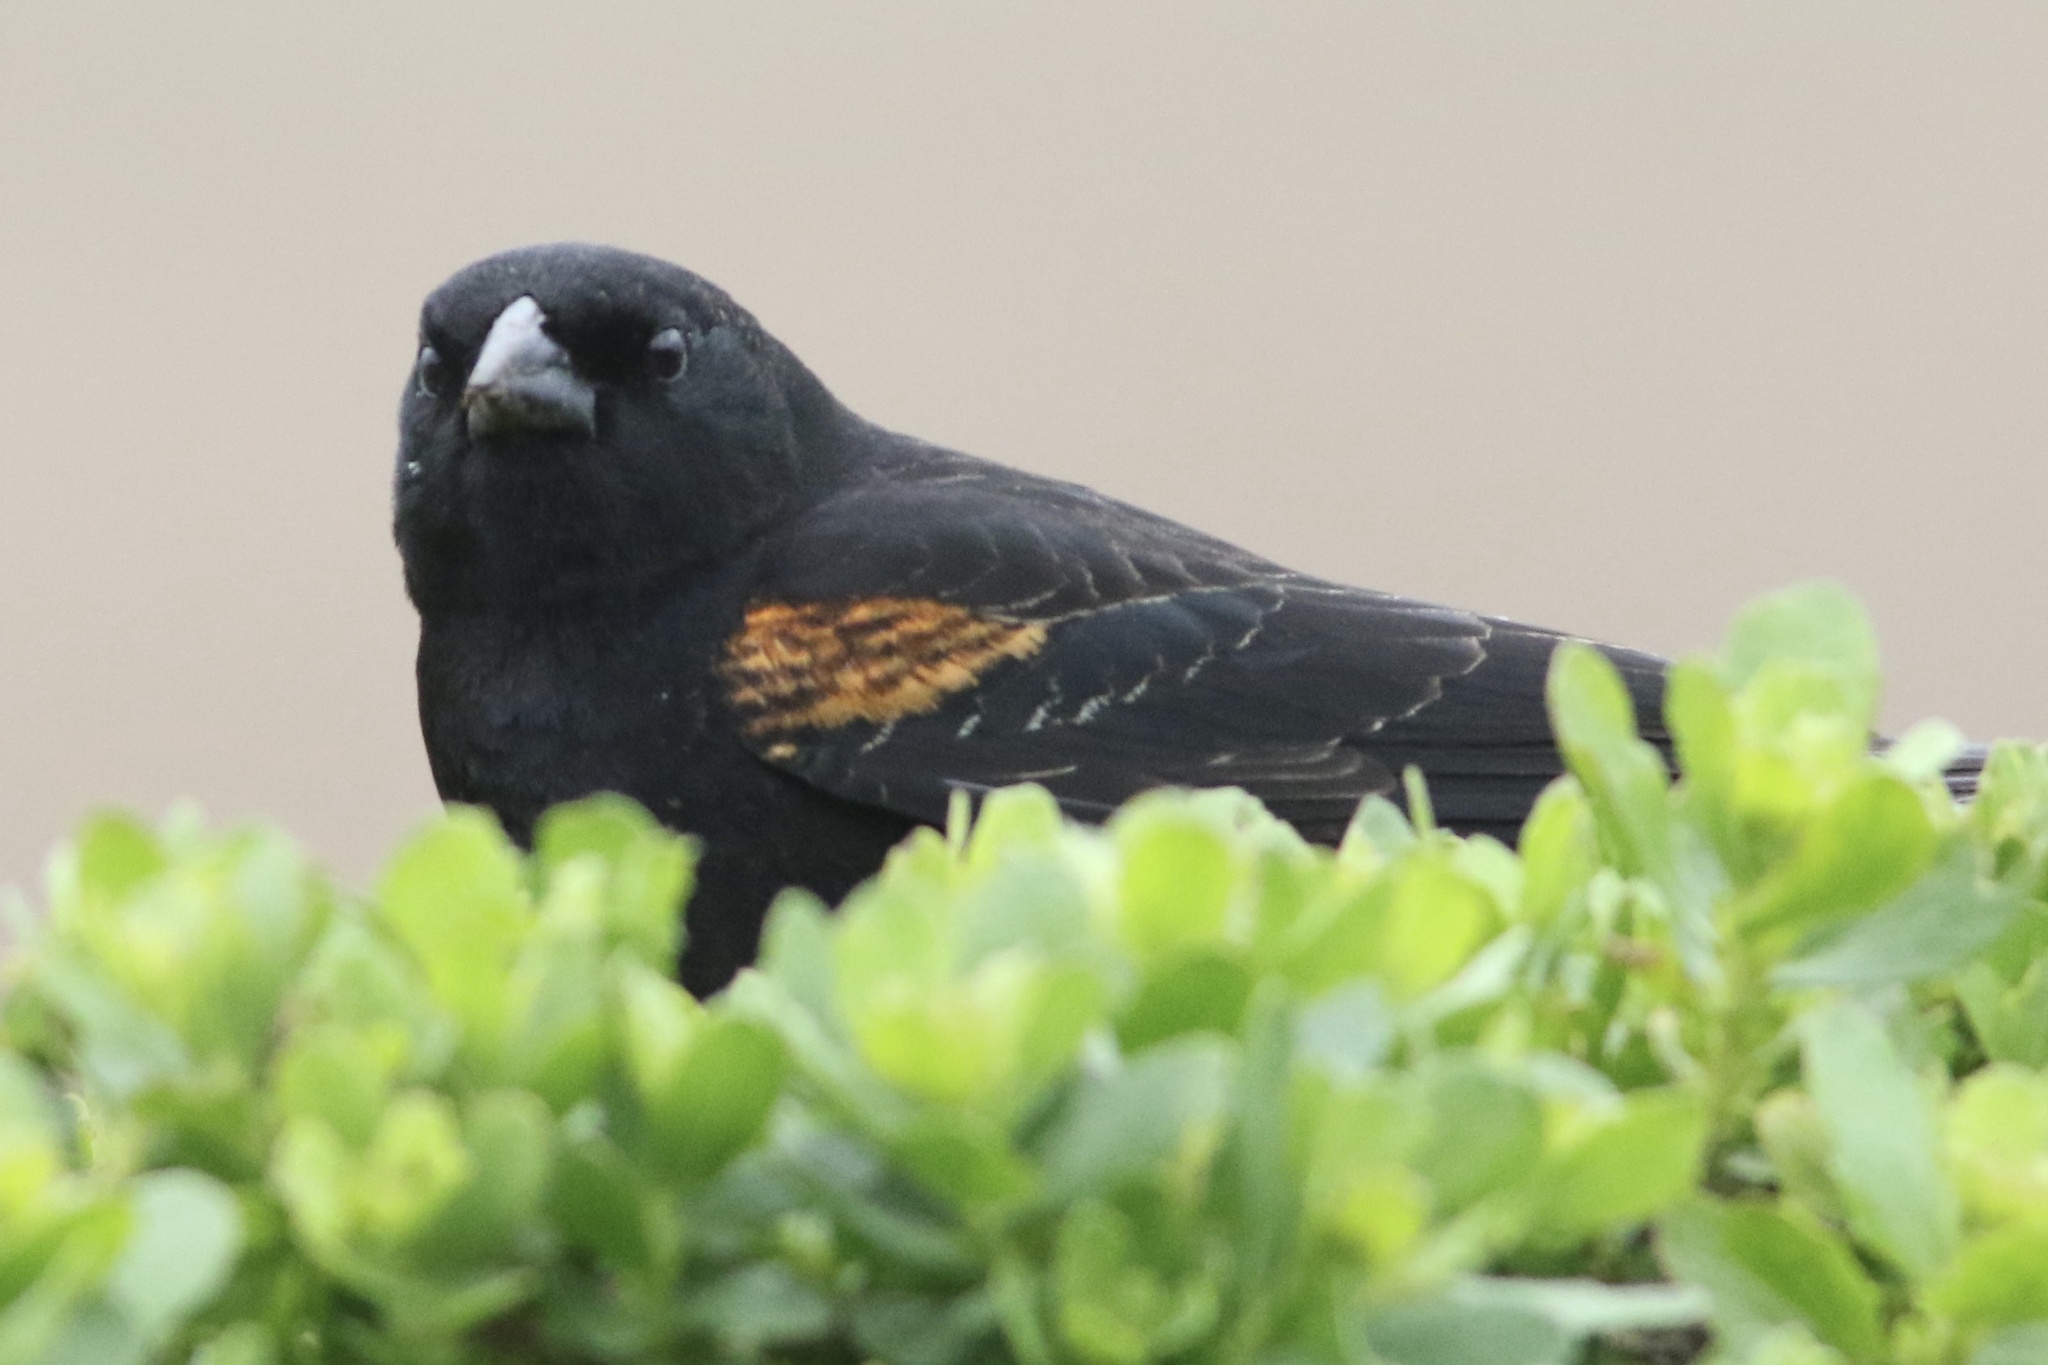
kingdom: Animalia
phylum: Chordata
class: Aves
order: Passeriformes
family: Icteridae
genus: Agelaius
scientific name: Agelaius phoeniceus
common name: Red-winged blackbird
